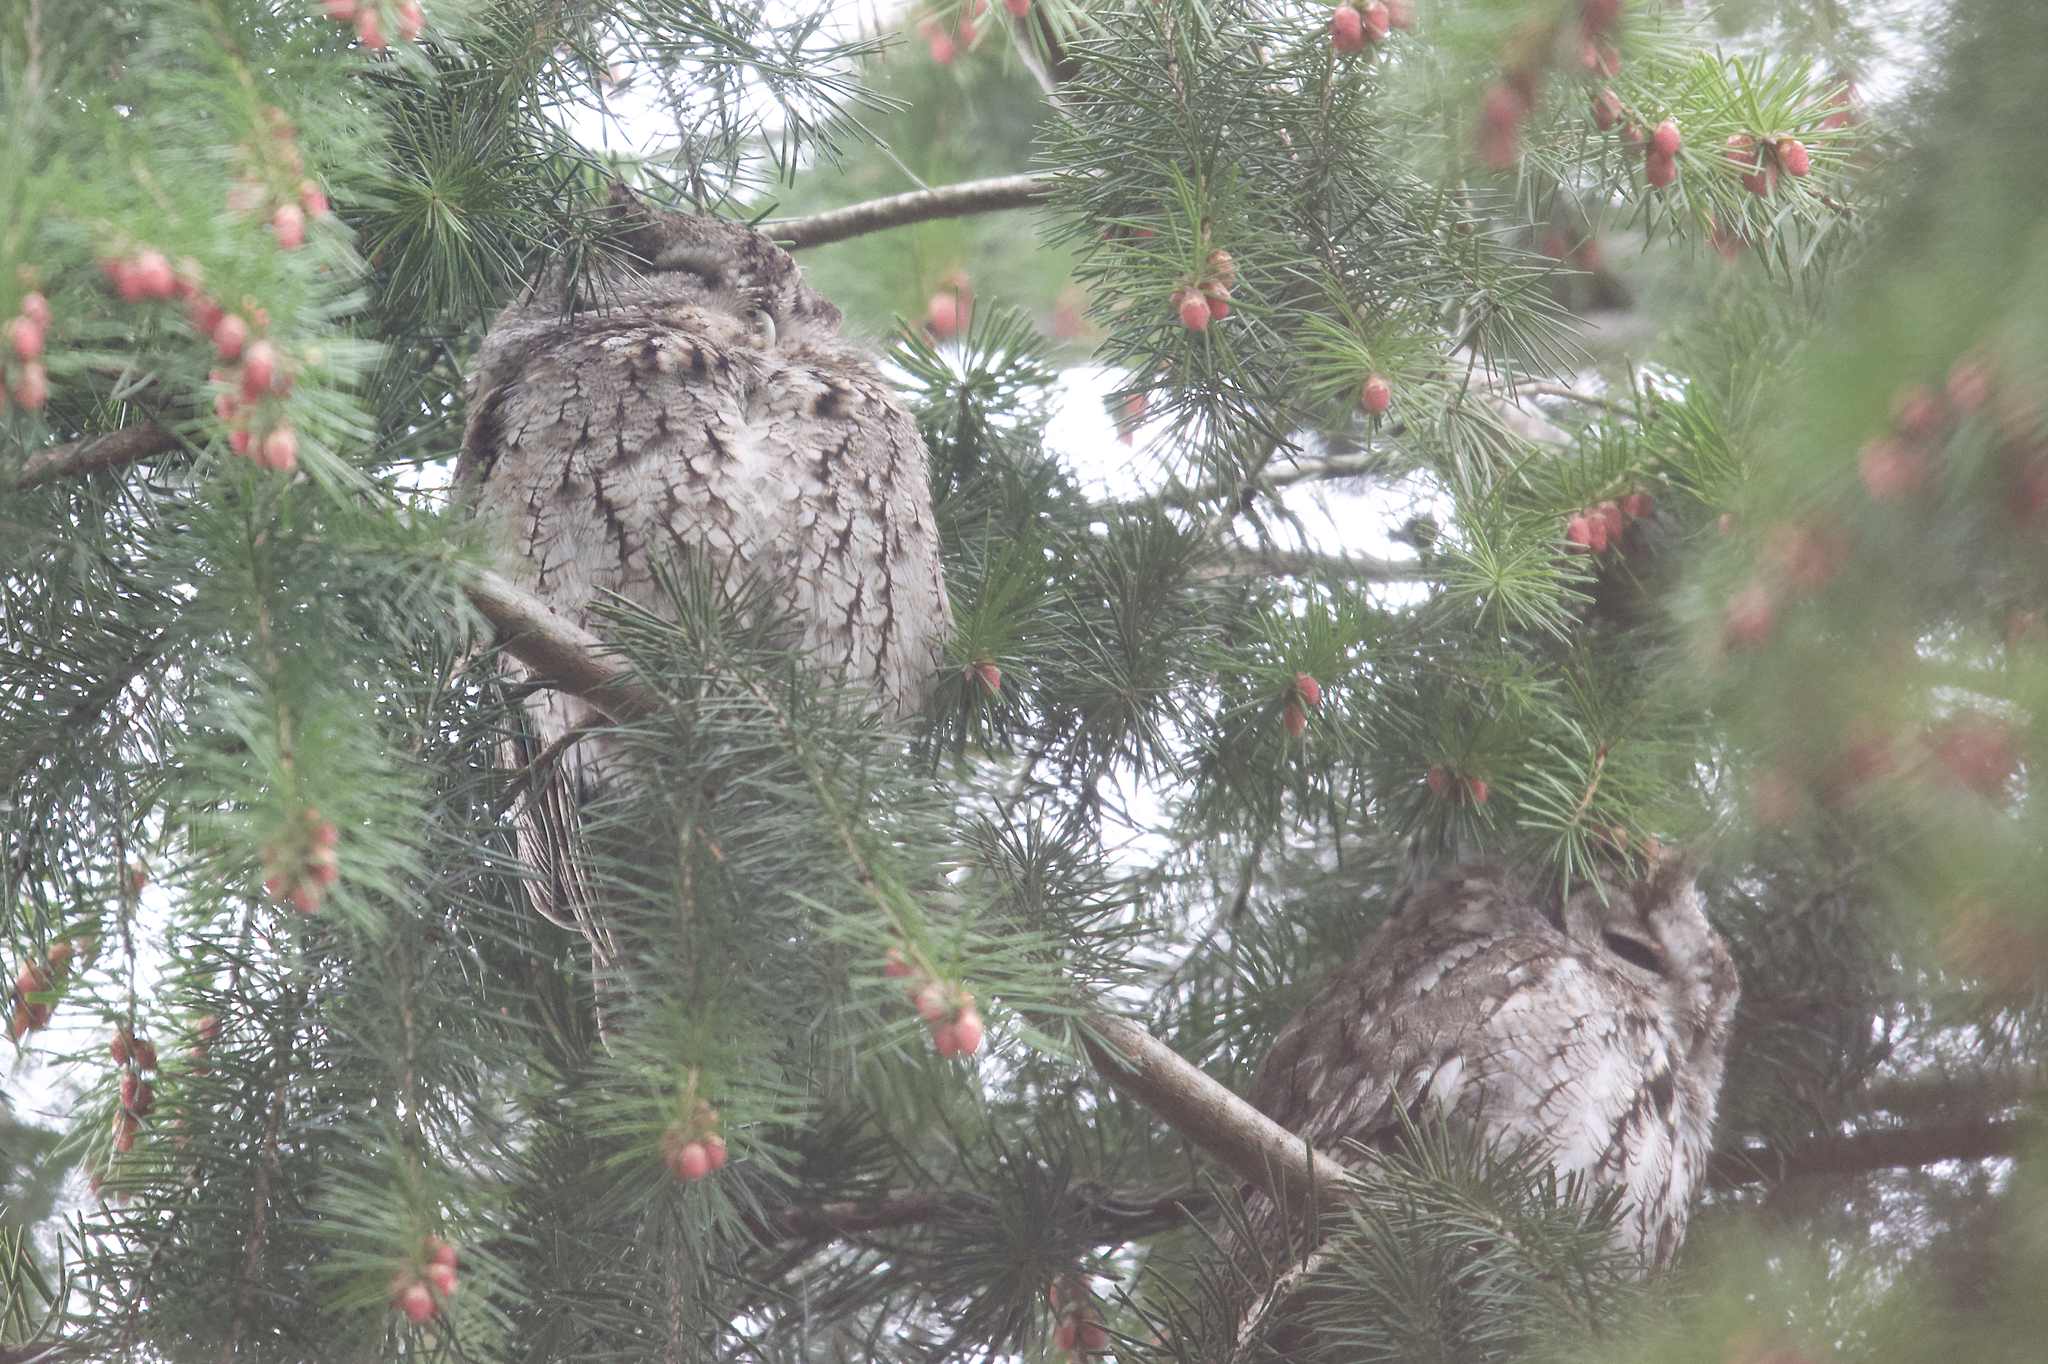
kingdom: Animalia
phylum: Chordata
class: Aves
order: Strigiformes
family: Strigidae
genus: Megascops
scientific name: Megascops asio
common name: Eastern screech-owl
